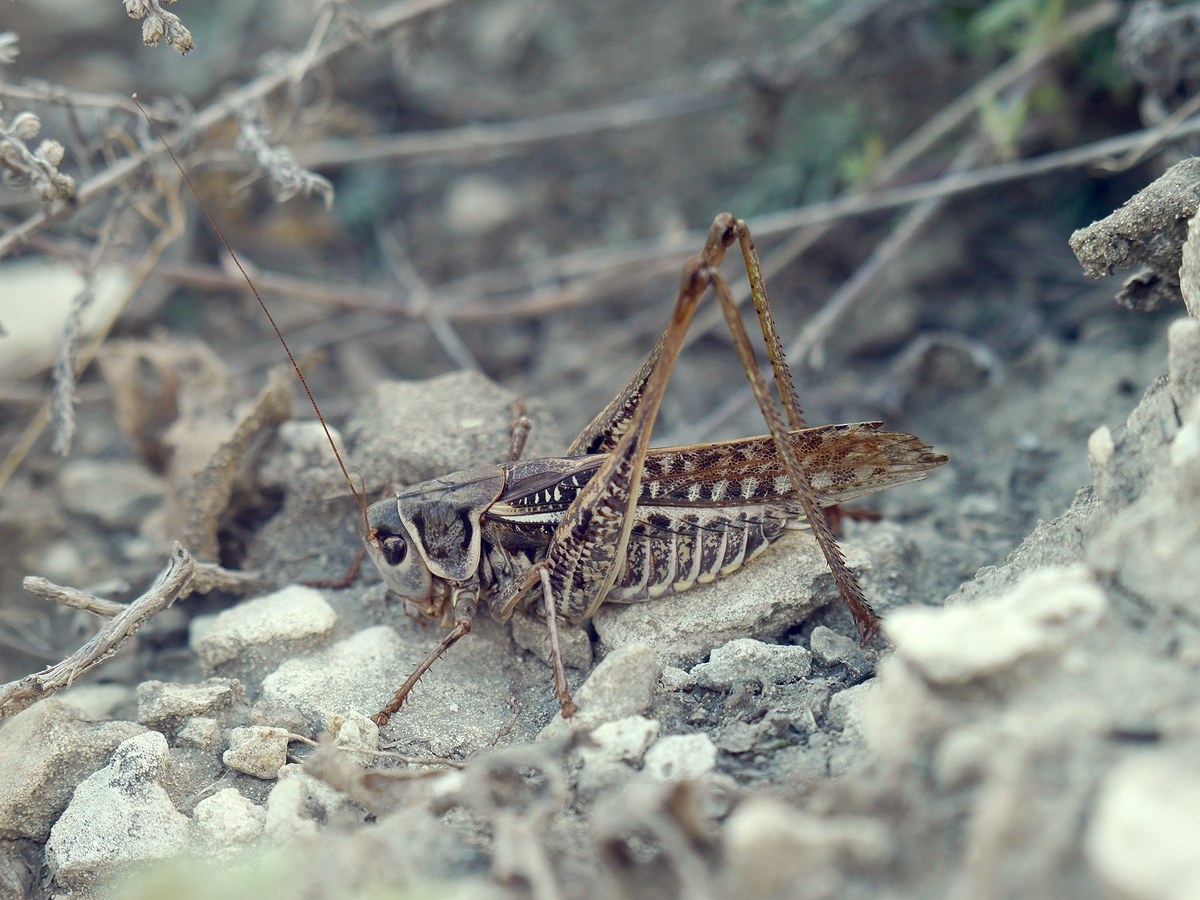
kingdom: Animalia
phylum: Arthropoda
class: Insecta
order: Orthoptera
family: Tettigoniidae
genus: Decticus
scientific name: Decticus albifrons
